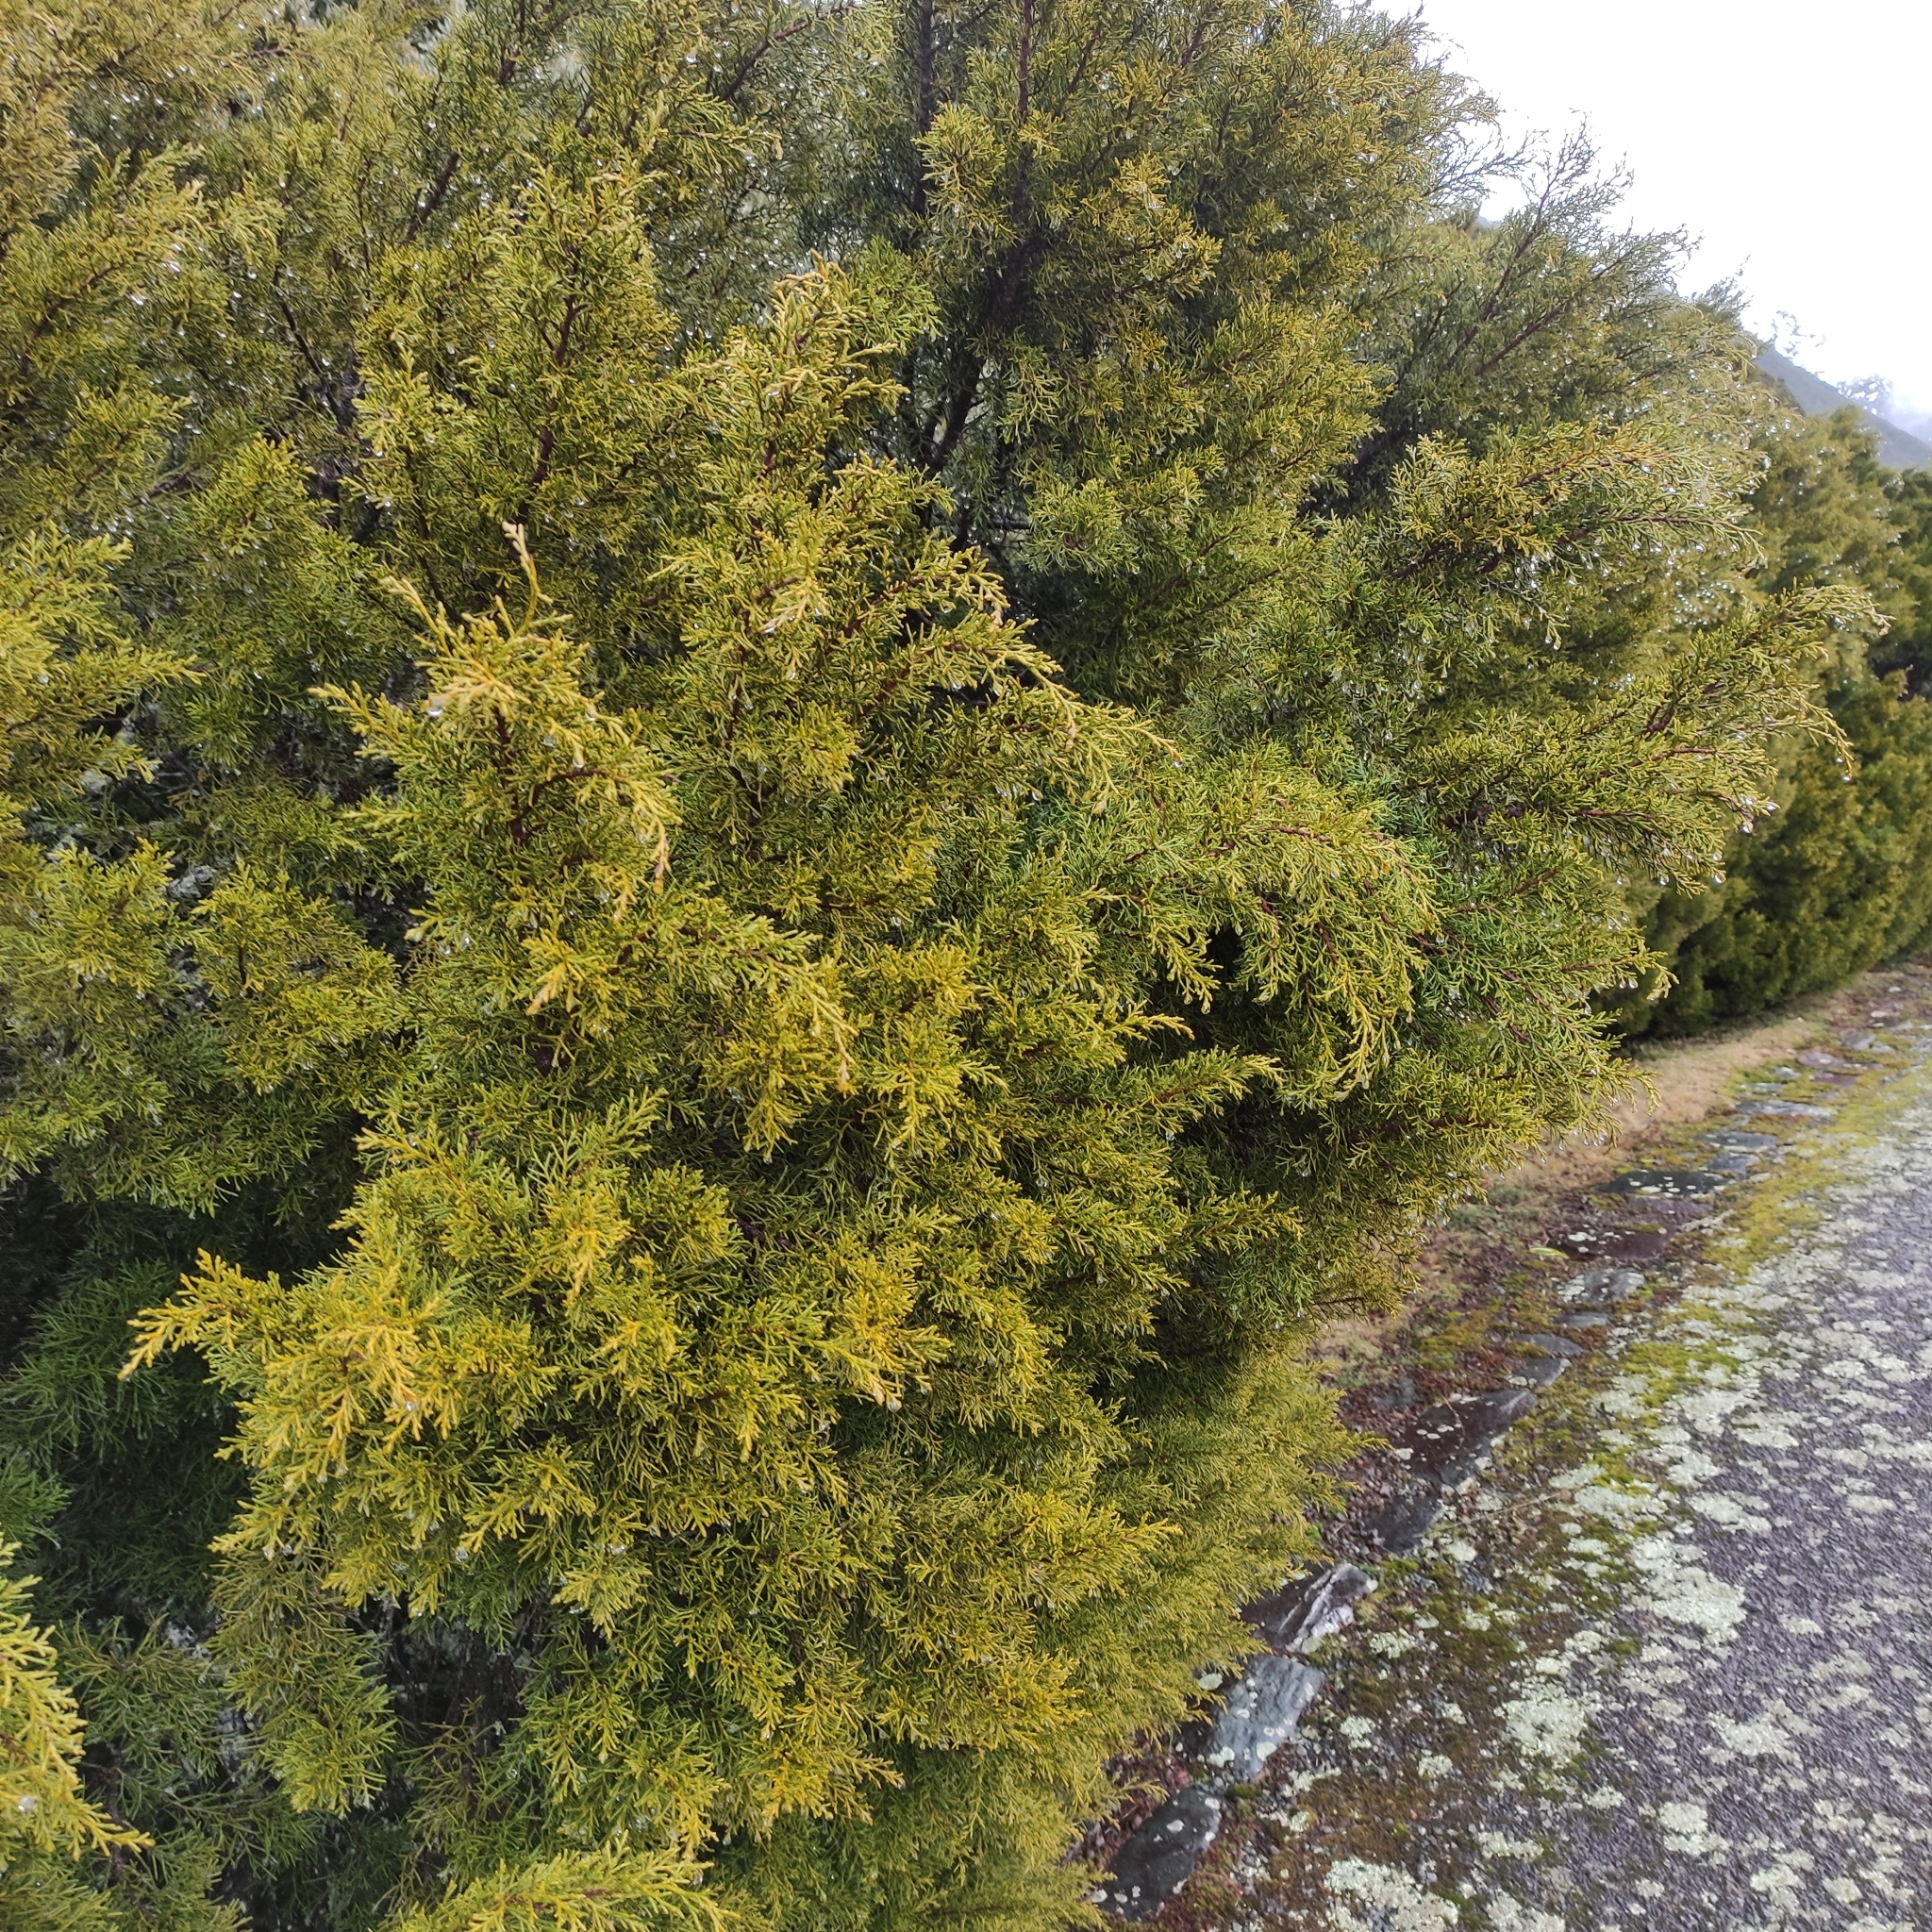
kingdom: Plantae
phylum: Tracheophyta
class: Pinopsida
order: Pinales
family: Podocarpaceae
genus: Halocarpus
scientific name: Halocarpus bidwillii
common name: Bog pine
